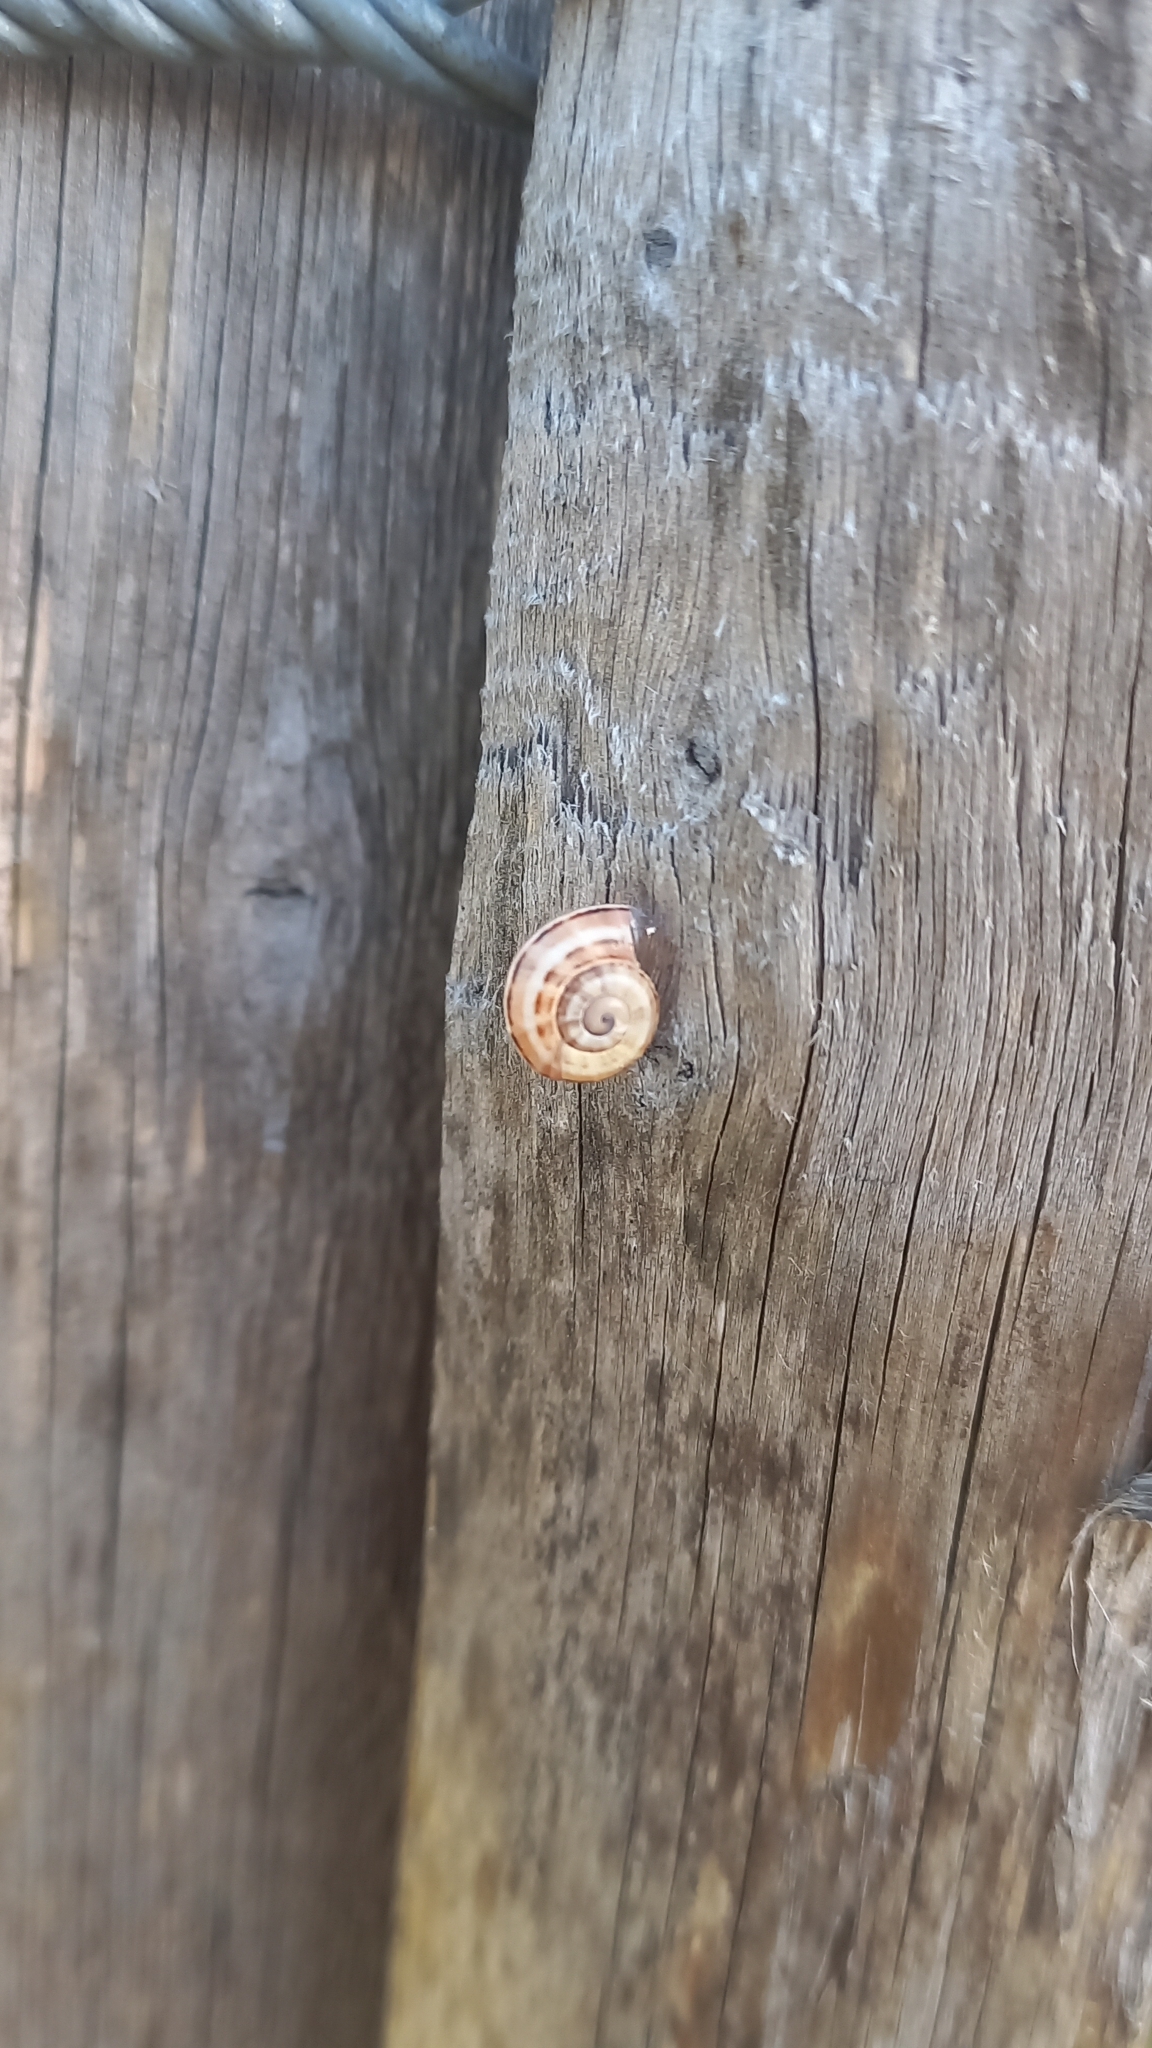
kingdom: Animalia
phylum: Mollusca
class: Gastropoda
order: Stylommatophora
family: Helicidae
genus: Theba
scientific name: Theba pisana
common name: White snail
